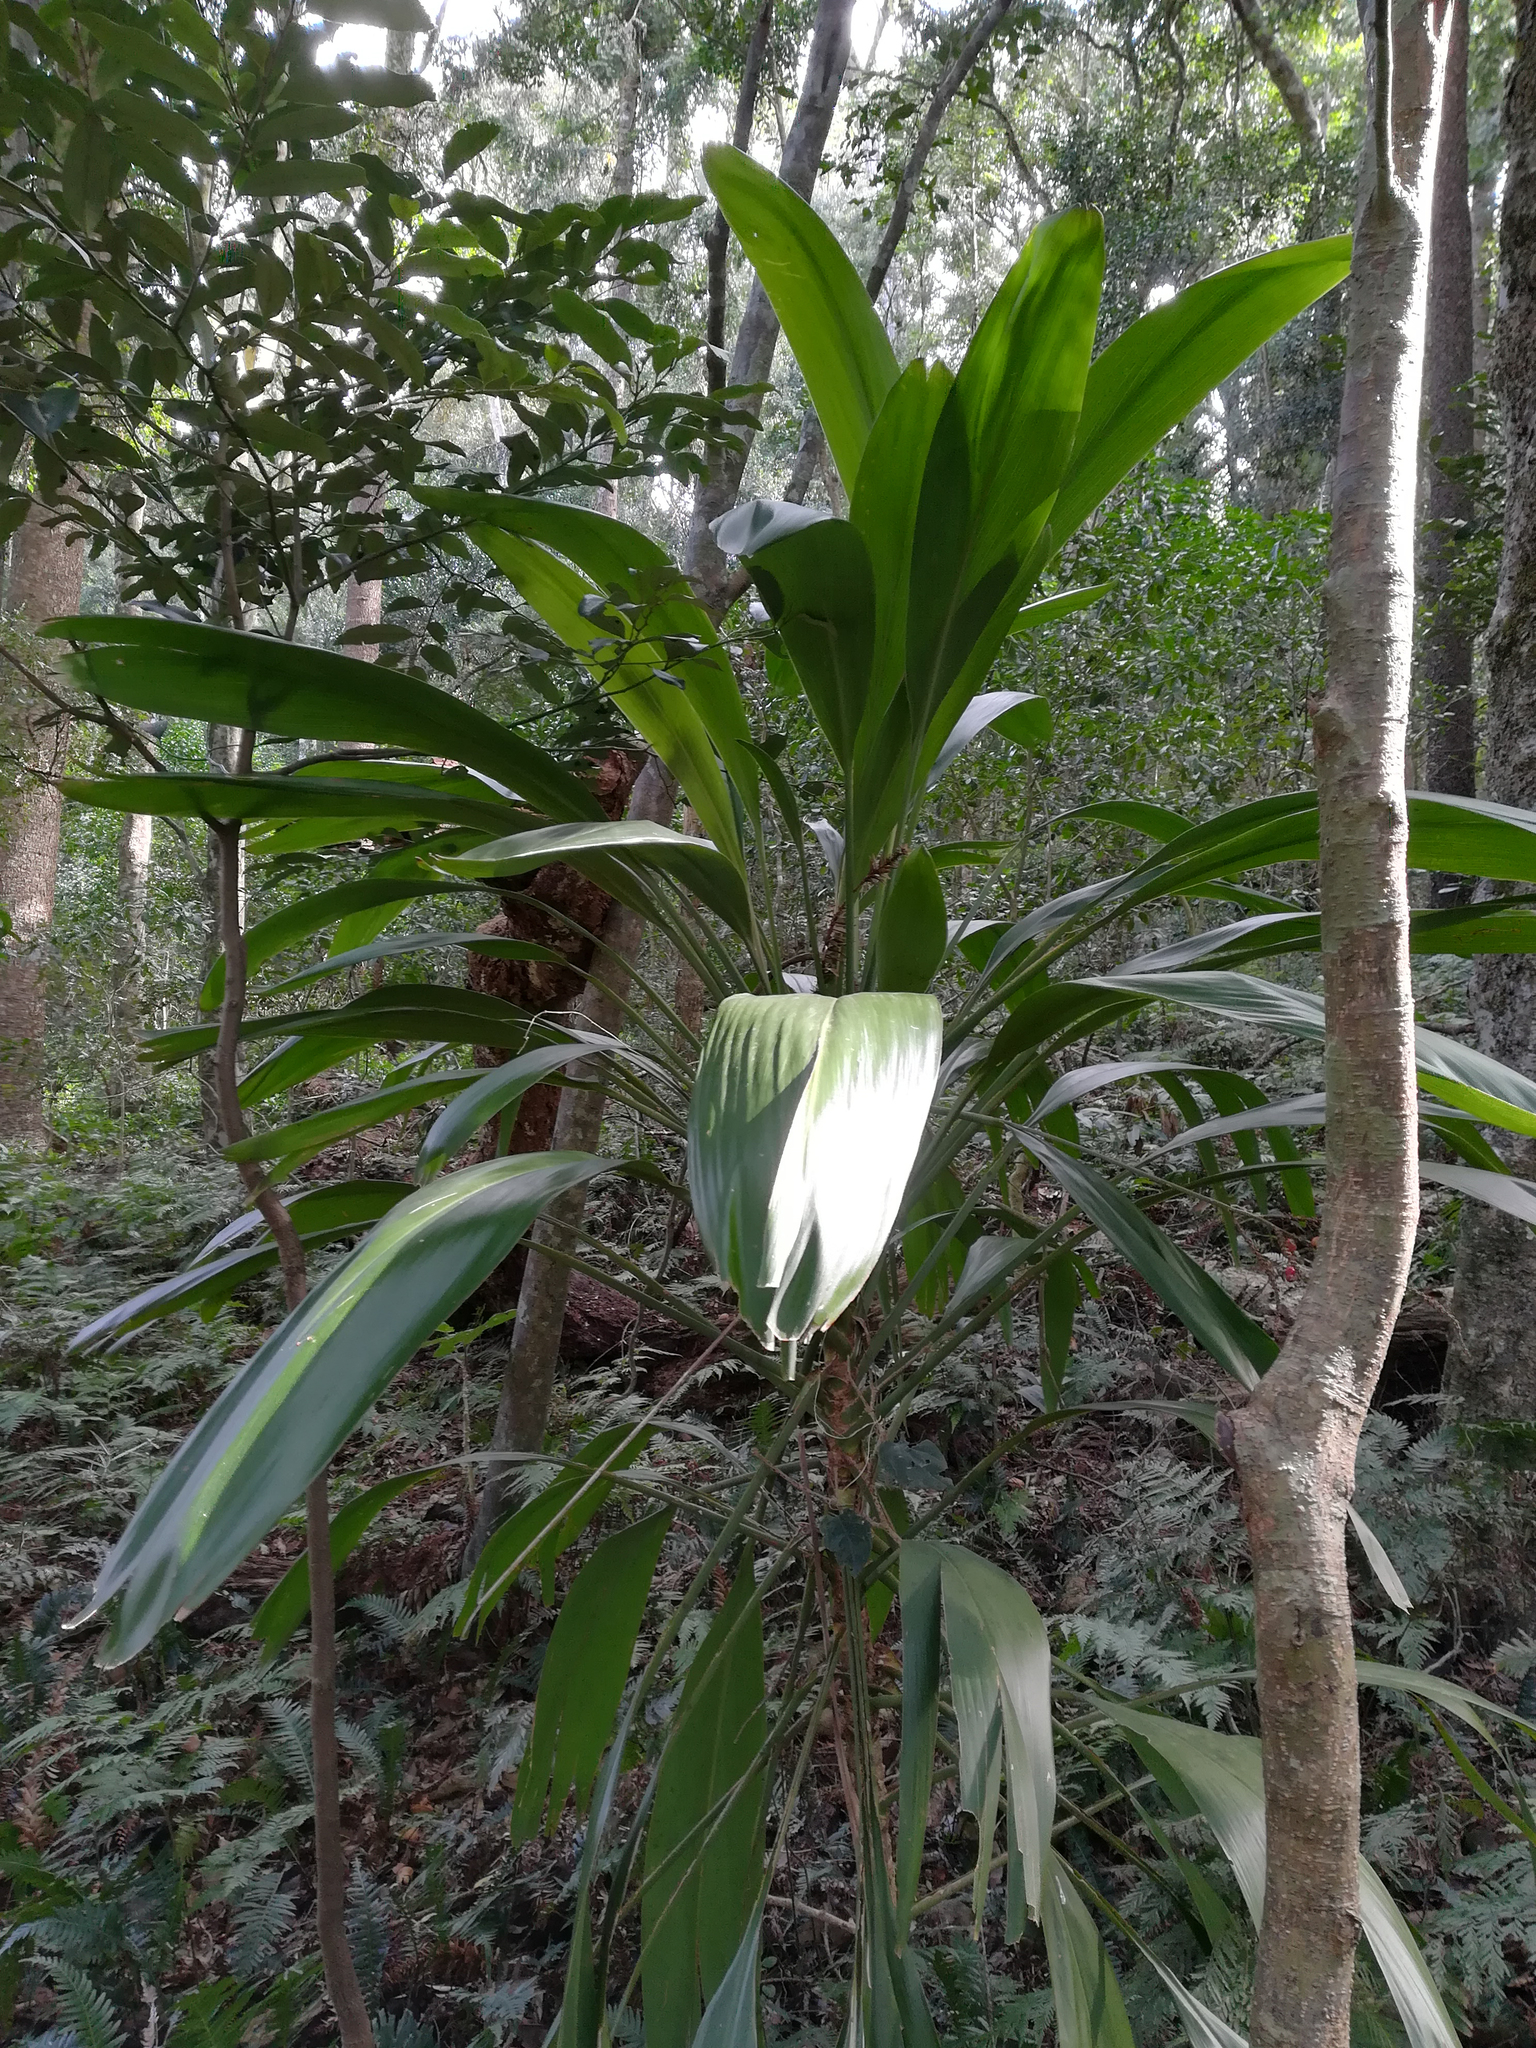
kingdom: Plantae
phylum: Tracheophyta
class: Liliopsida
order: Asparagales
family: Asparagaceae
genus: Cordyline
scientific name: Cordyline petiolaris
